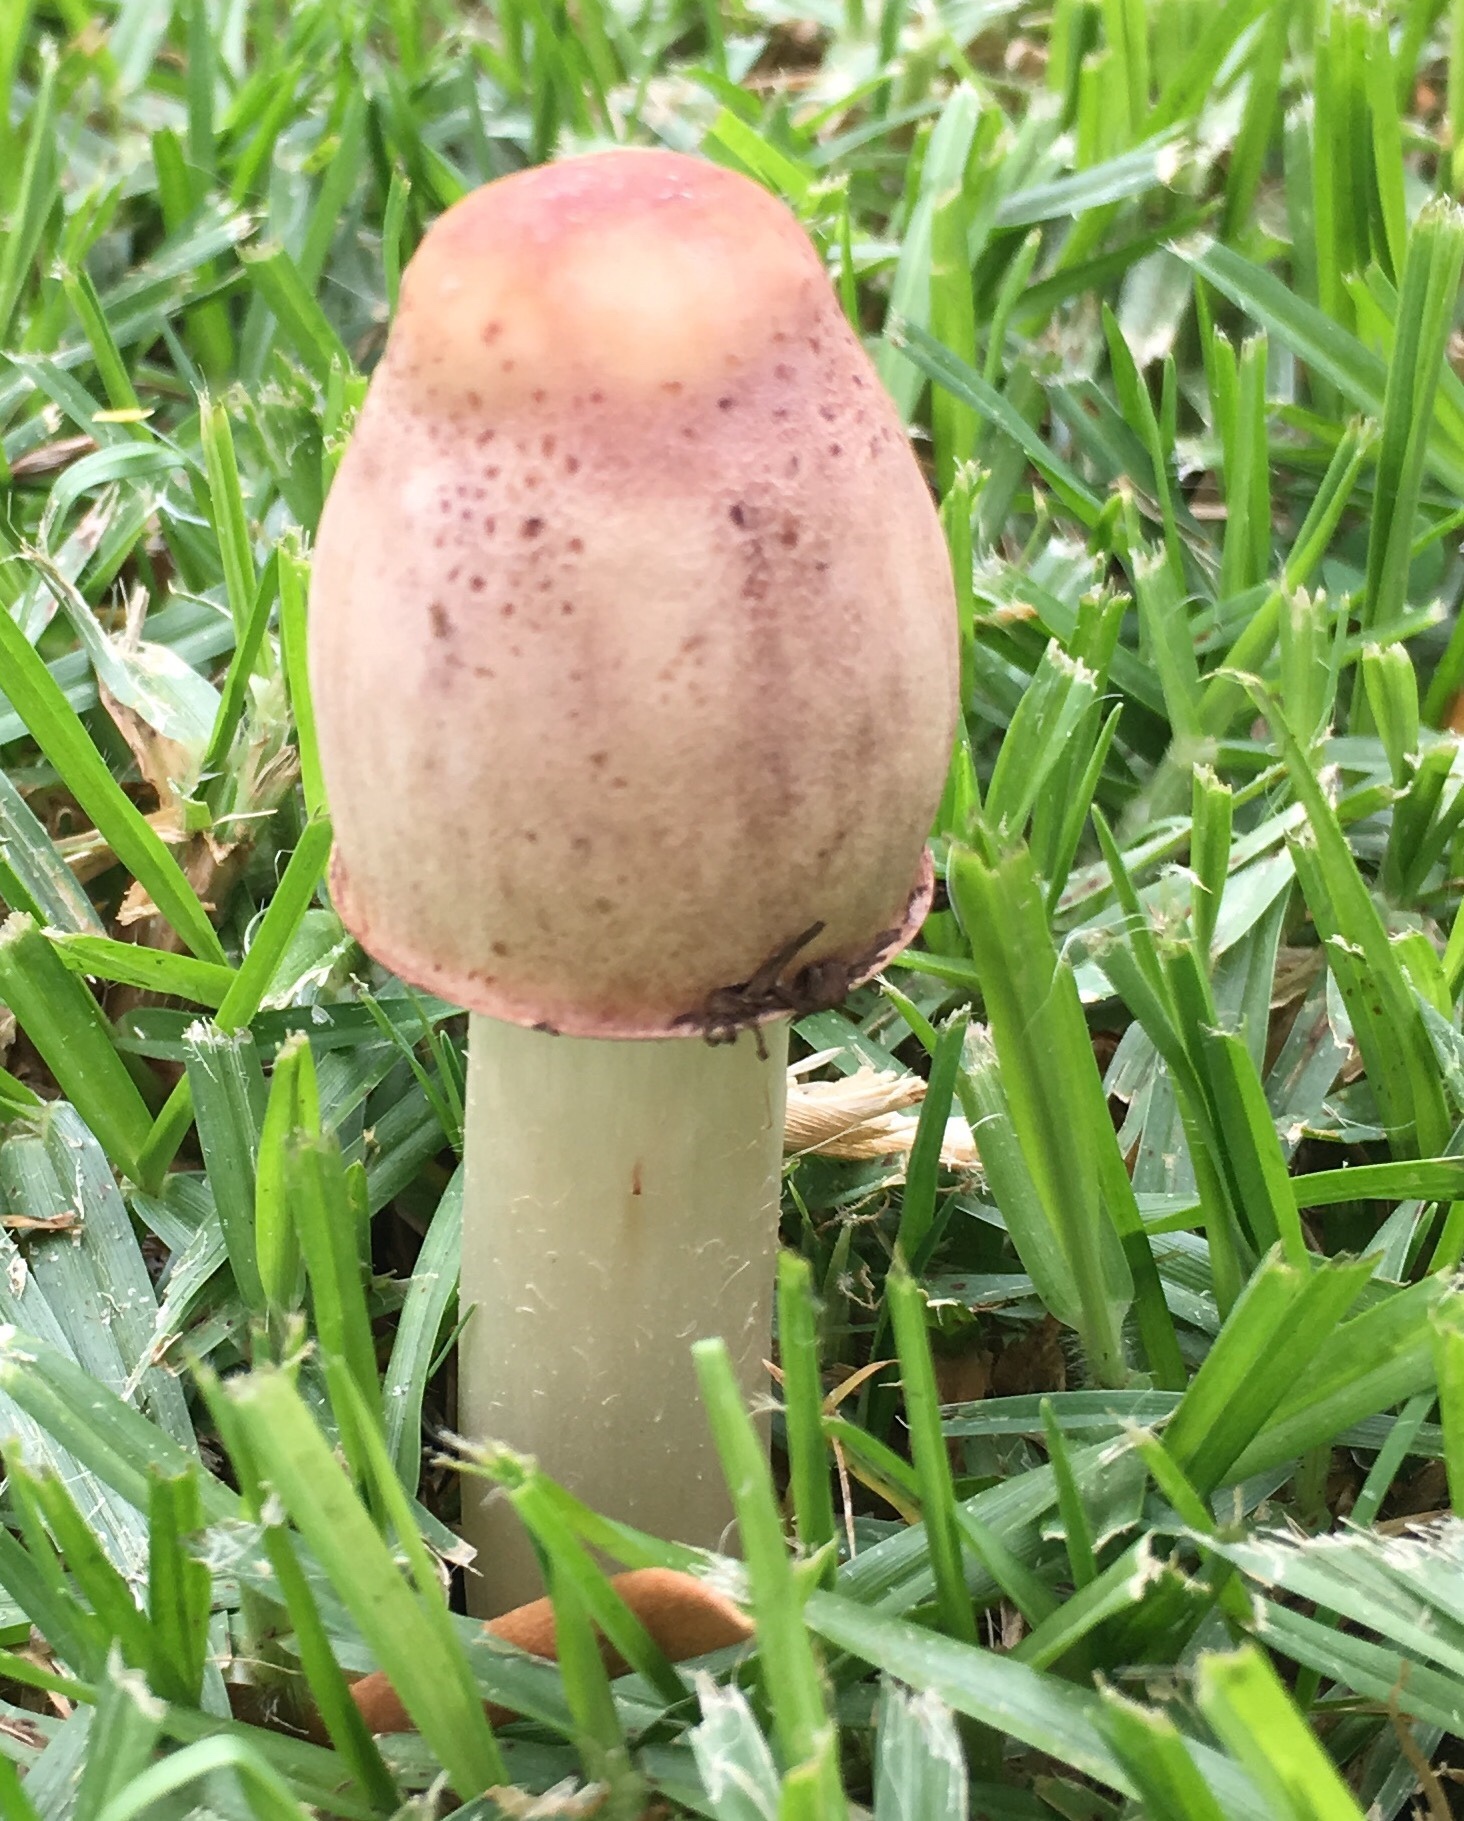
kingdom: Fungi
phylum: Basidiomycota
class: Agaricomycetes
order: Agaricales
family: Agaricaceae
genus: Chlorophyllum
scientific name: Chlorophyllum molybdites
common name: False parasol
